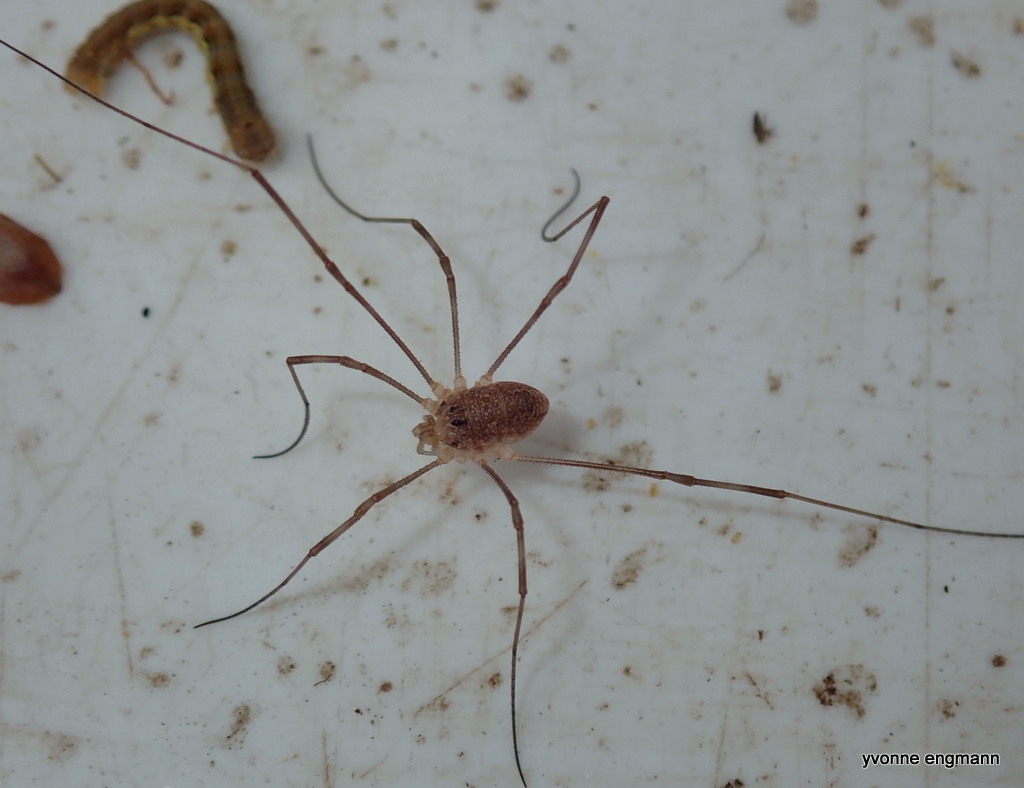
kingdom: Animalia
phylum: Arthropoda
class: Arachnida
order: Opiliones
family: Phalangiidae
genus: Rilaena
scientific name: Rilaena triangularis
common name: Spring harvestman
